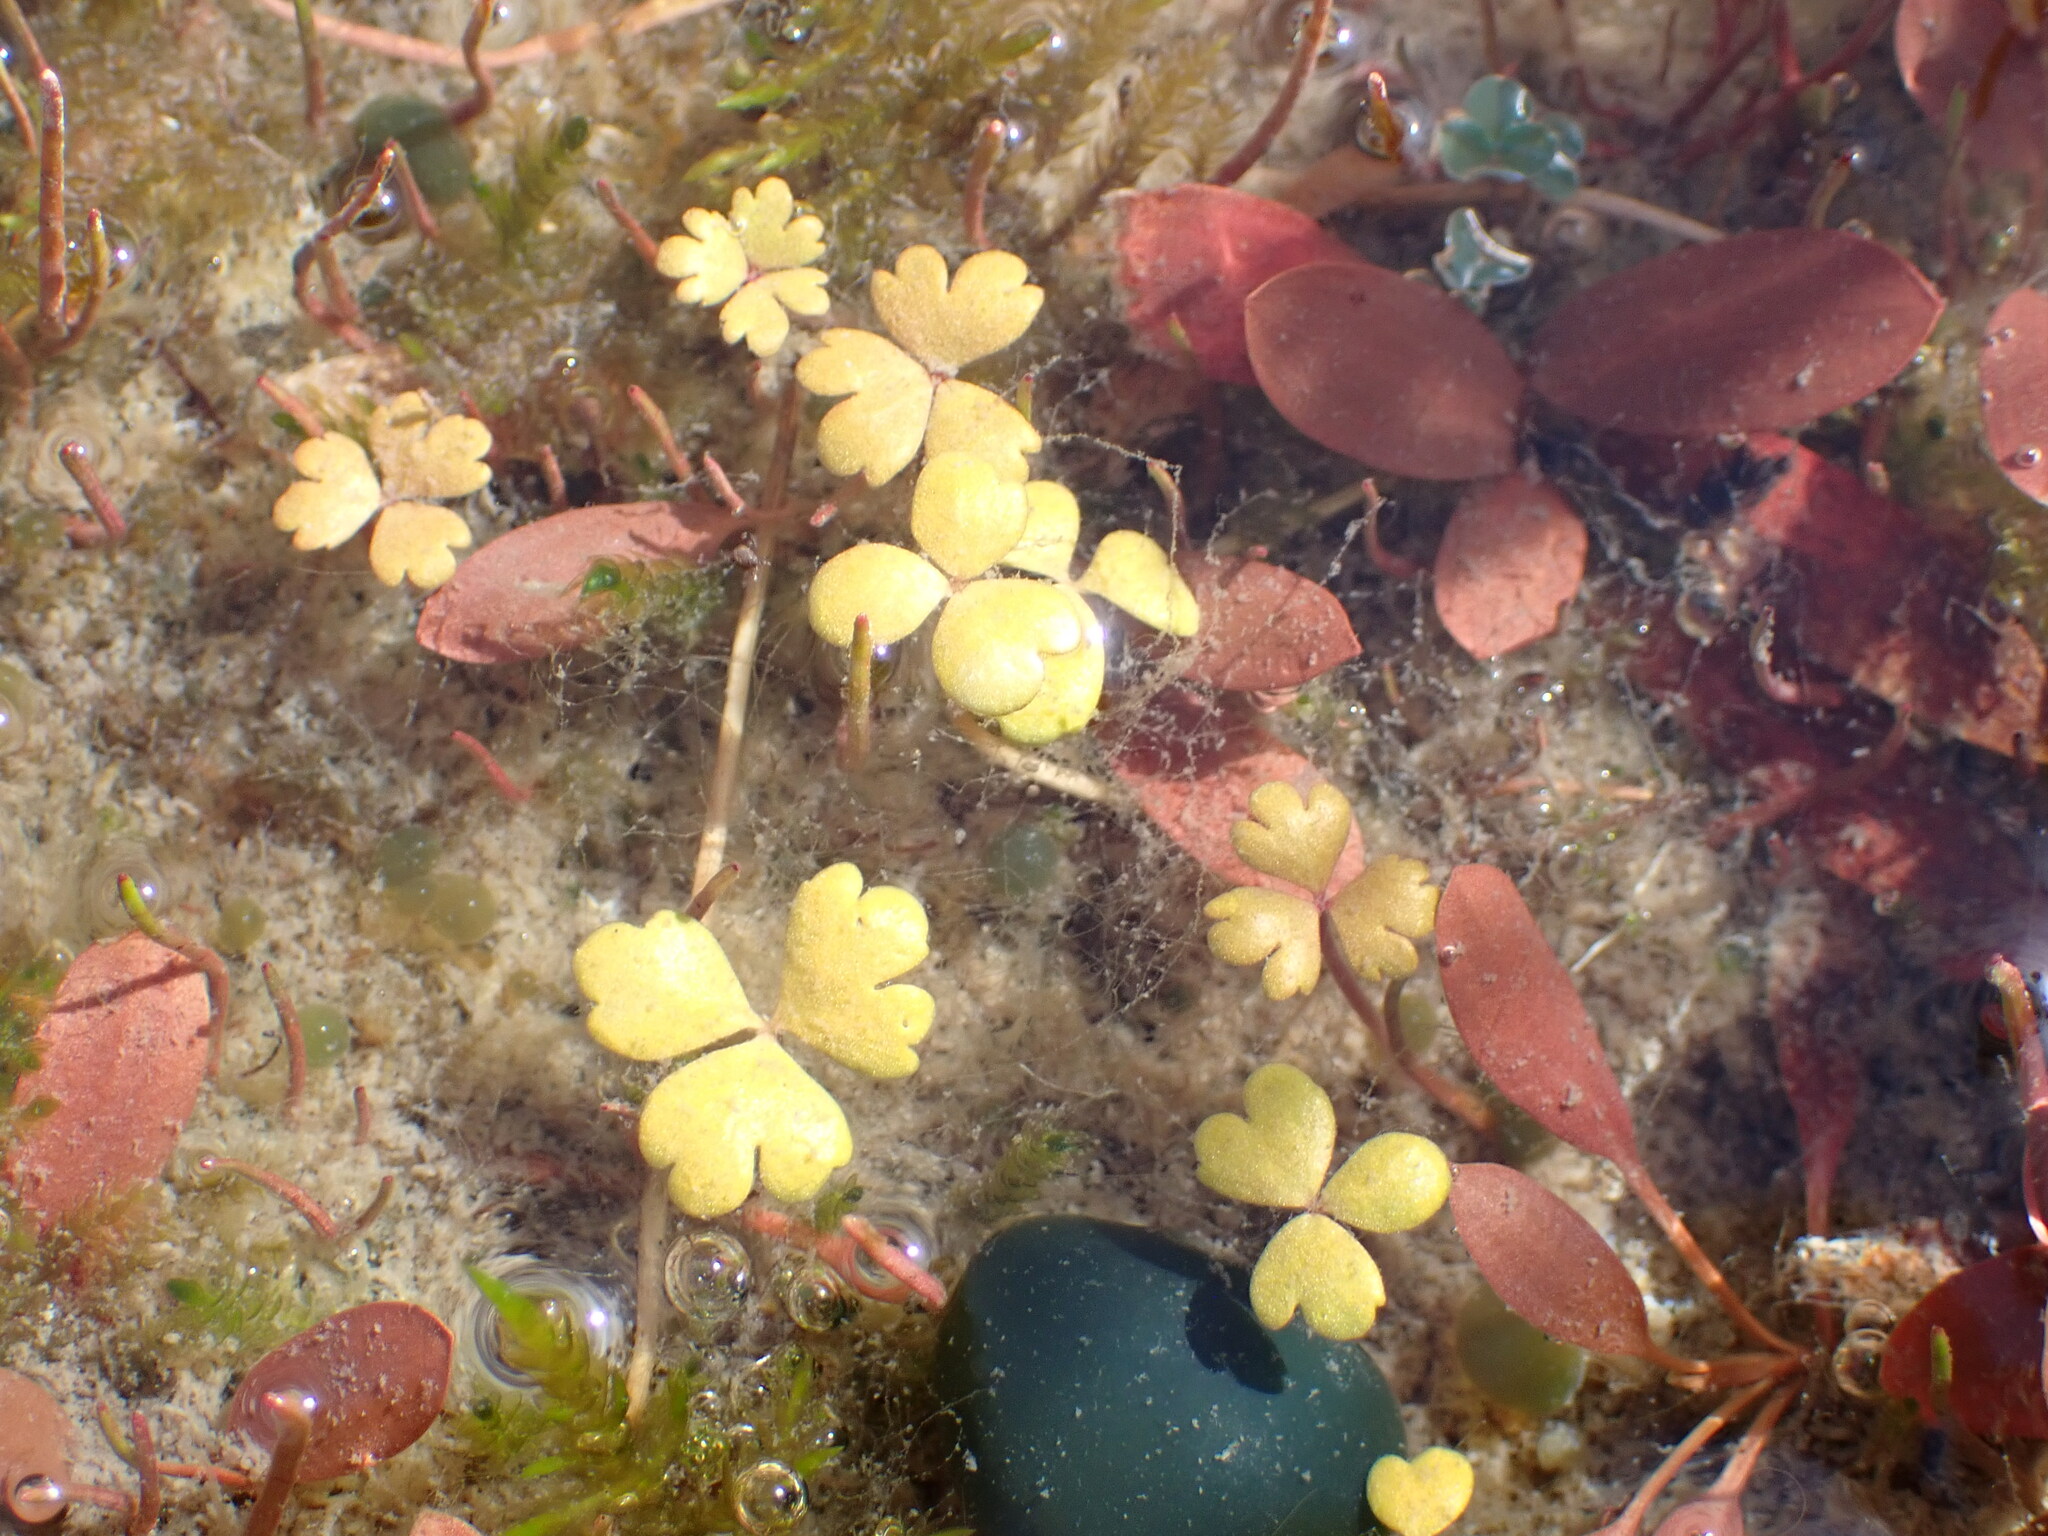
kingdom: Plantae
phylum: Tracheophyta
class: Magnoliopsida
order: Apiales
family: Araliaceae
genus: Hydrocotyle
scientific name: Hydrocotyle sulcata
